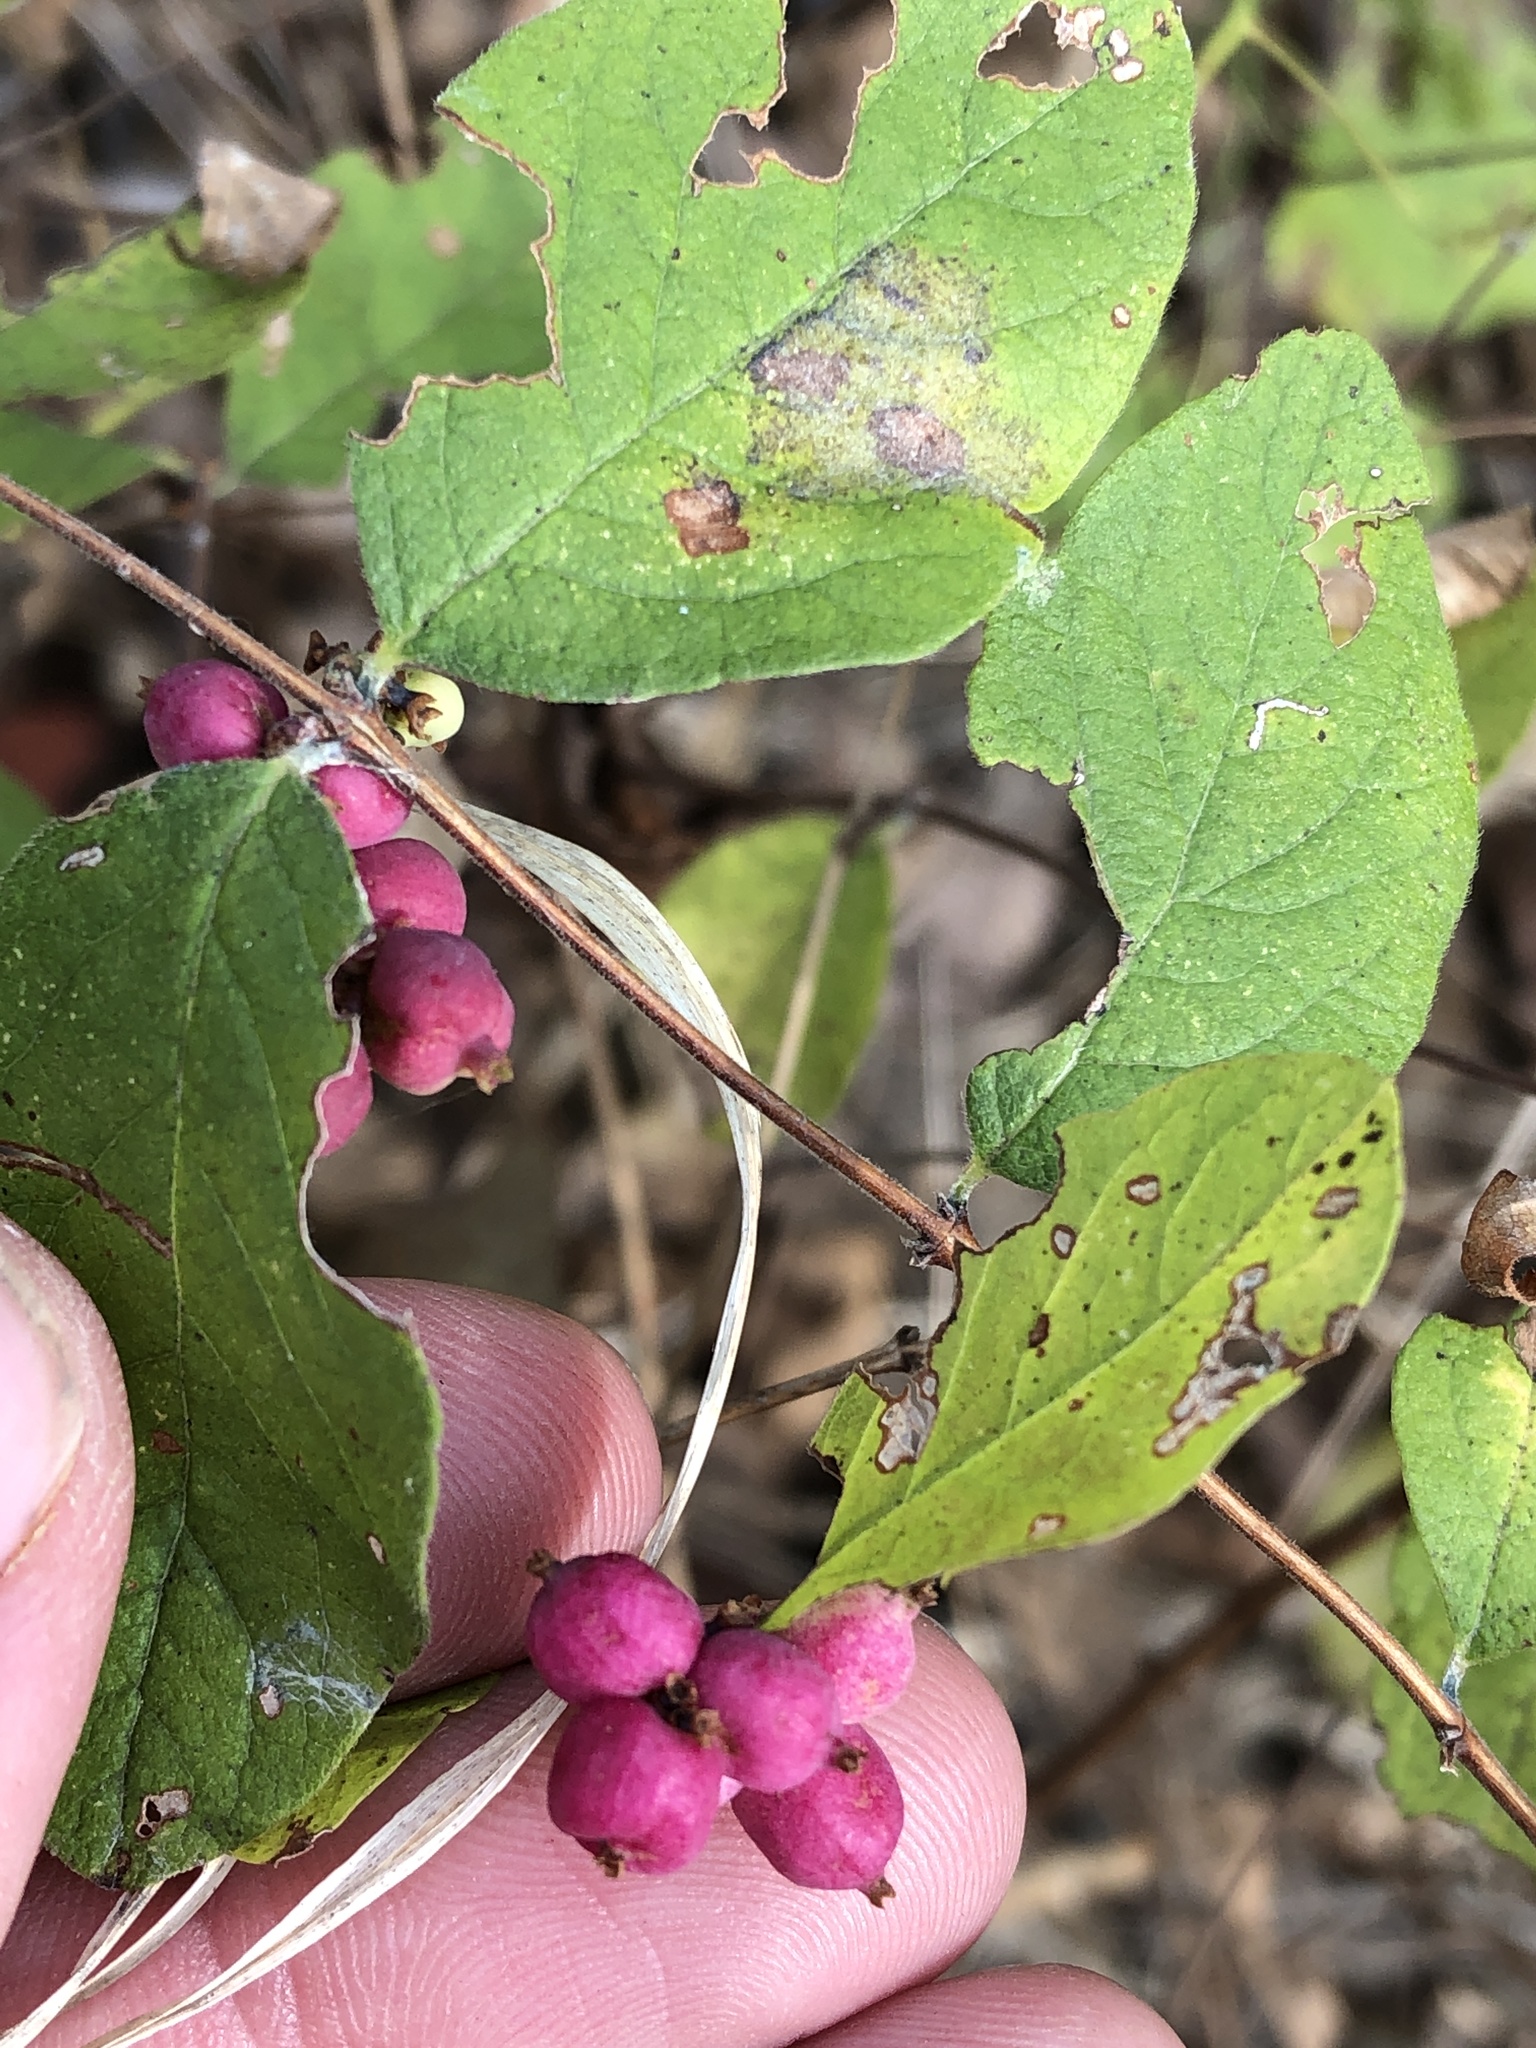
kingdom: Plantae
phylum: Tracheophyta
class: Magnoliopsida
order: Dipsacales
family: Caprifoliaceae
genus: Symphoricarpos
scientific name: Symphoricarpos orbiculatus
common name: Coralberry
